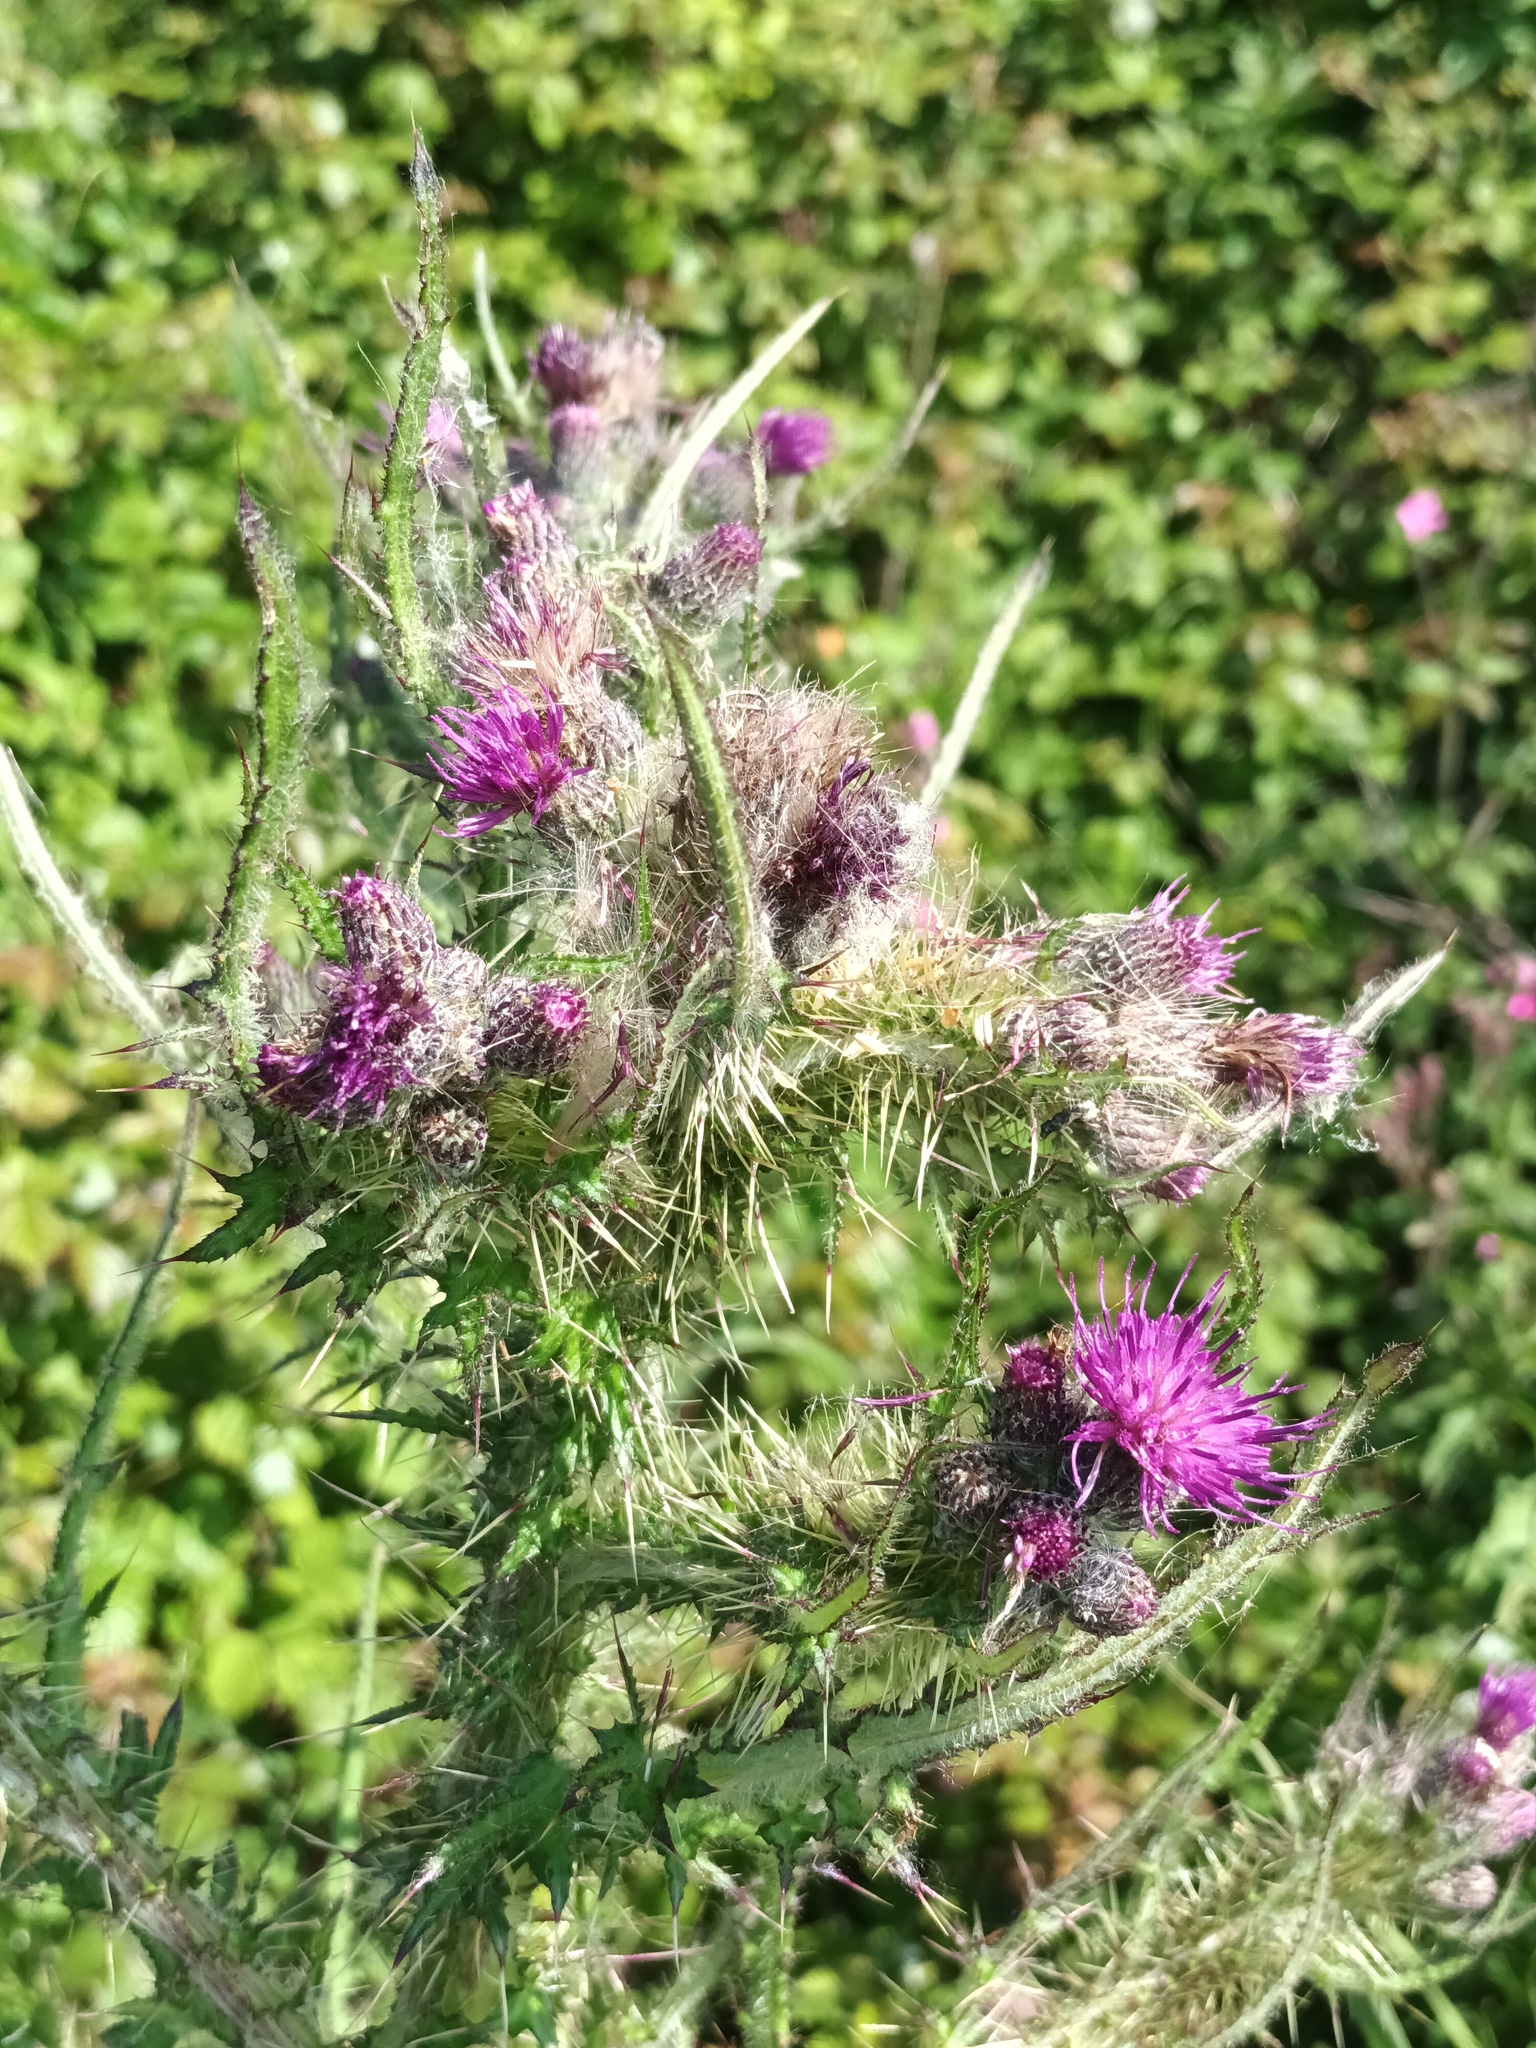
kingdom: Plantae
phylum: Tracheophyta
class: Magnoliopsida
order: Asterales
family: Asteraceae
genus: Cirsium
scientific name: Cirsium palustre
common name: Marsh thistle
